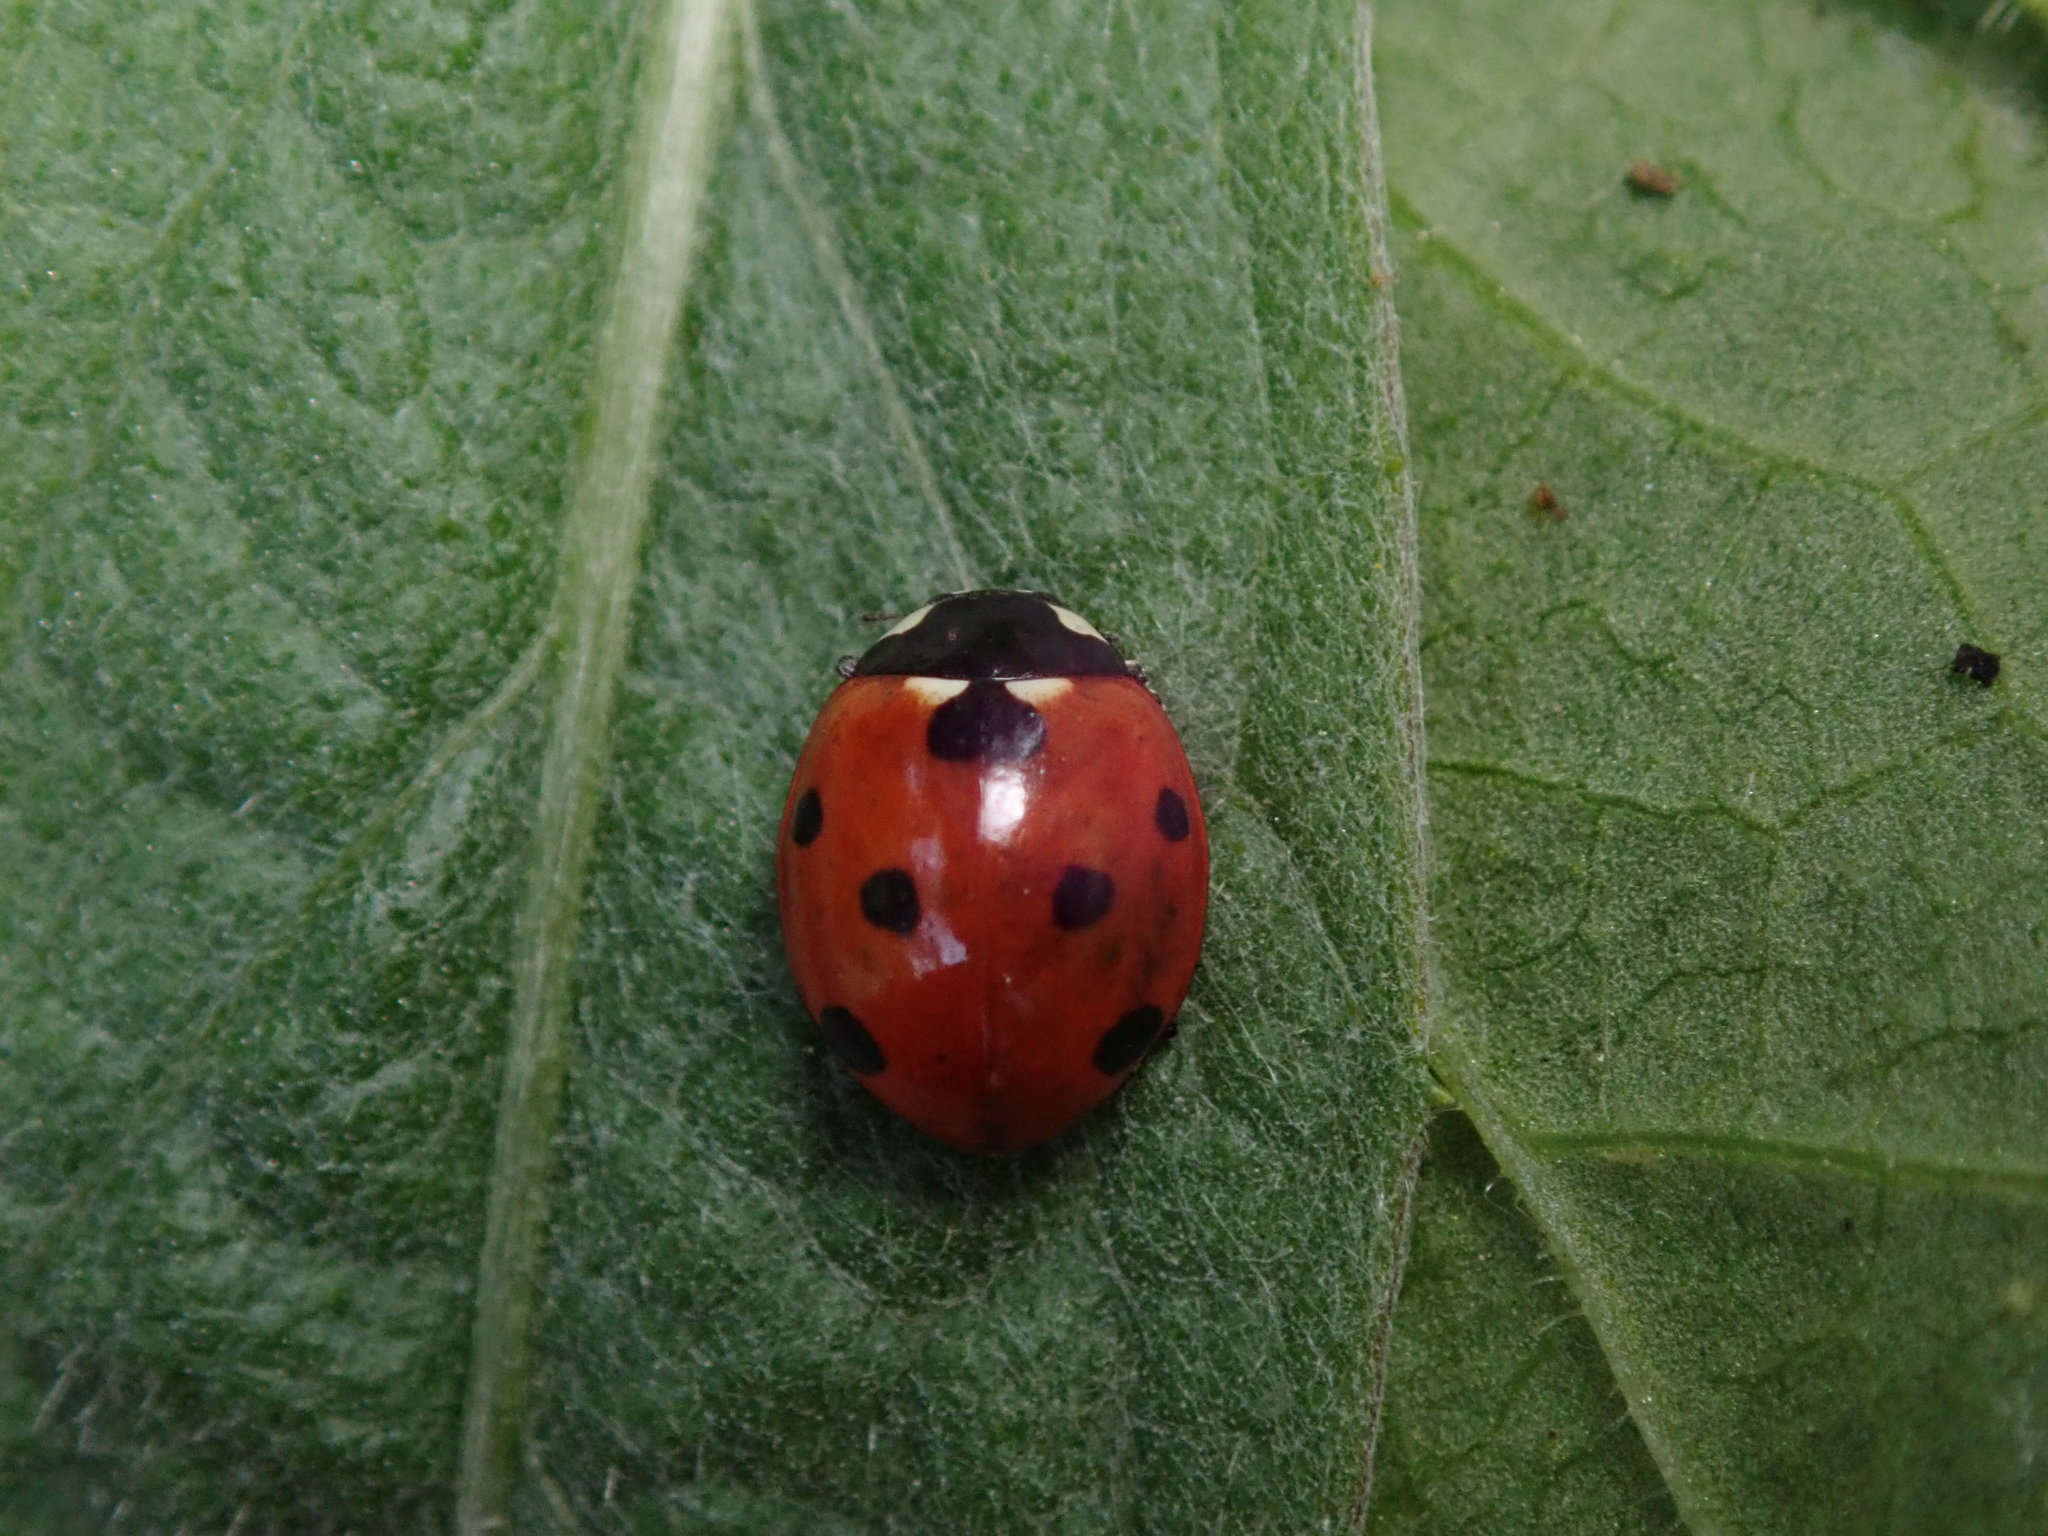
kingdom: Animalia
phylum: Arthropoda
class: Insecta
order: Coleoptera
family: Coccinellidae
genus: Coccinella
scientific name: Coccinella septempunctata
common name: Sevenspotted lady beetle
